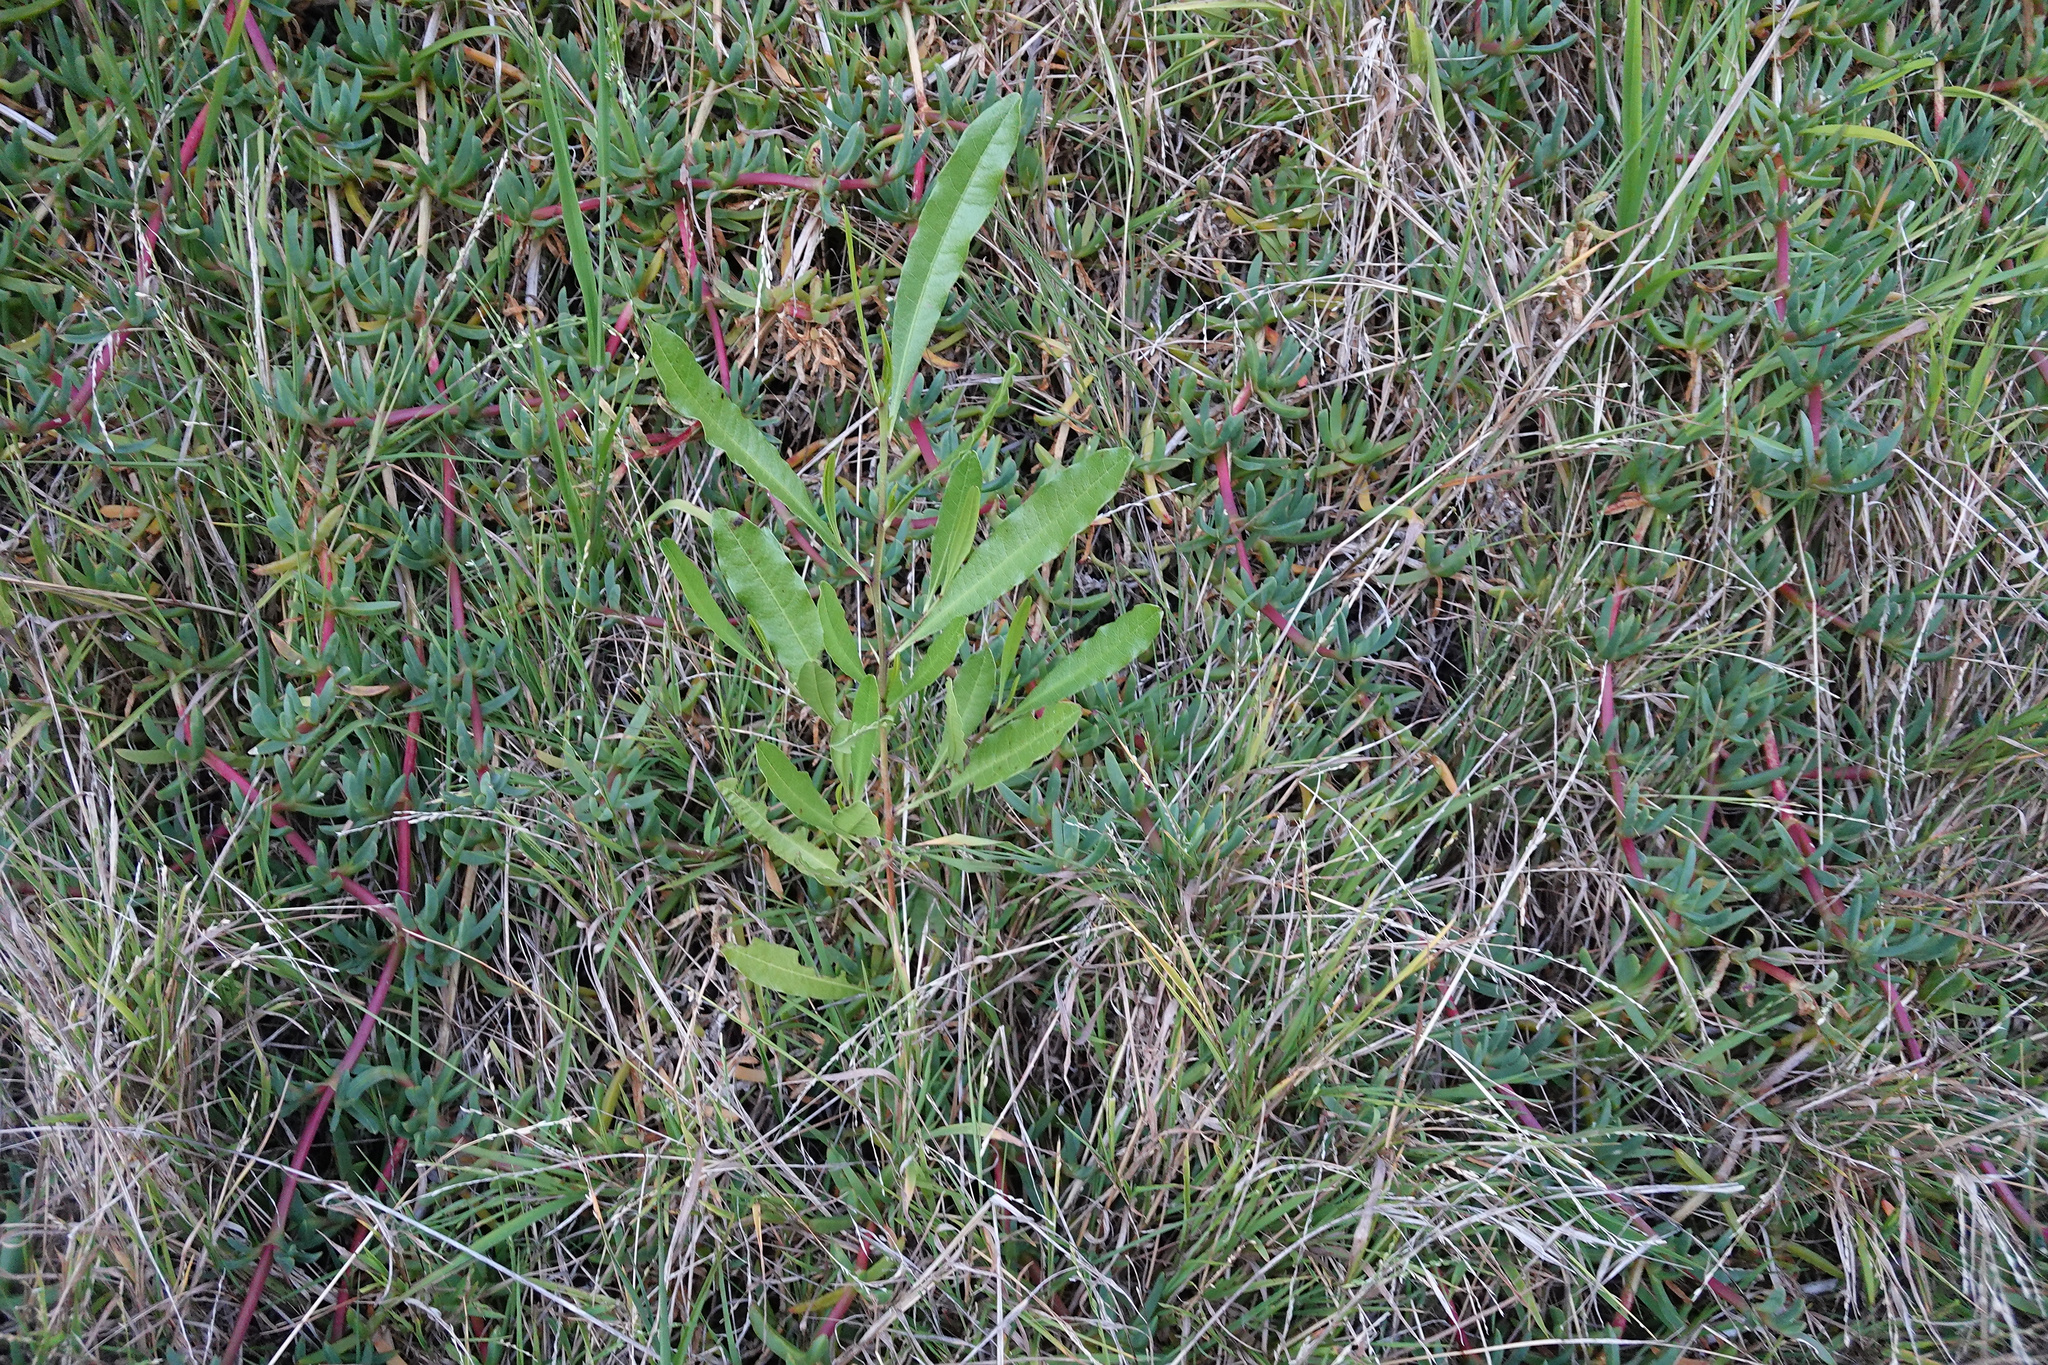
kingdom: Plantae
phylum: Tracheophyta
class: Magnoliopsida
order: Sapindales
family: Sapindaceae
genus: Dodonaea
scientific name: Dodonaea viscosa
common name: Hopbush
